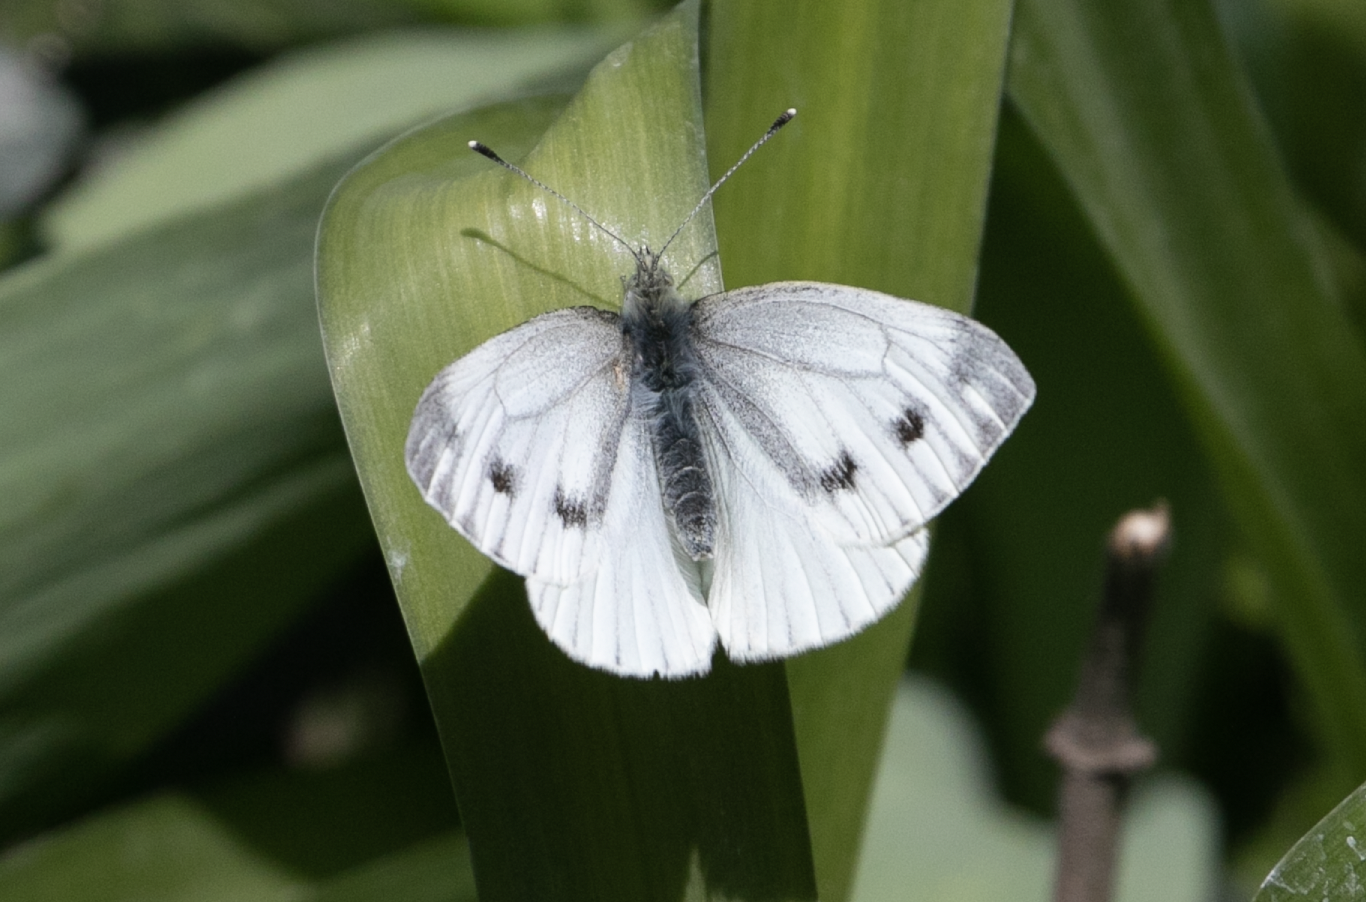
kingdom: Animalia
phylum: Arthropoda
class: Insecta
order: Lepidoptera
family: Pieridae
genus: Pieris
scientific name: Pieris napi
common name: Green-veined white
